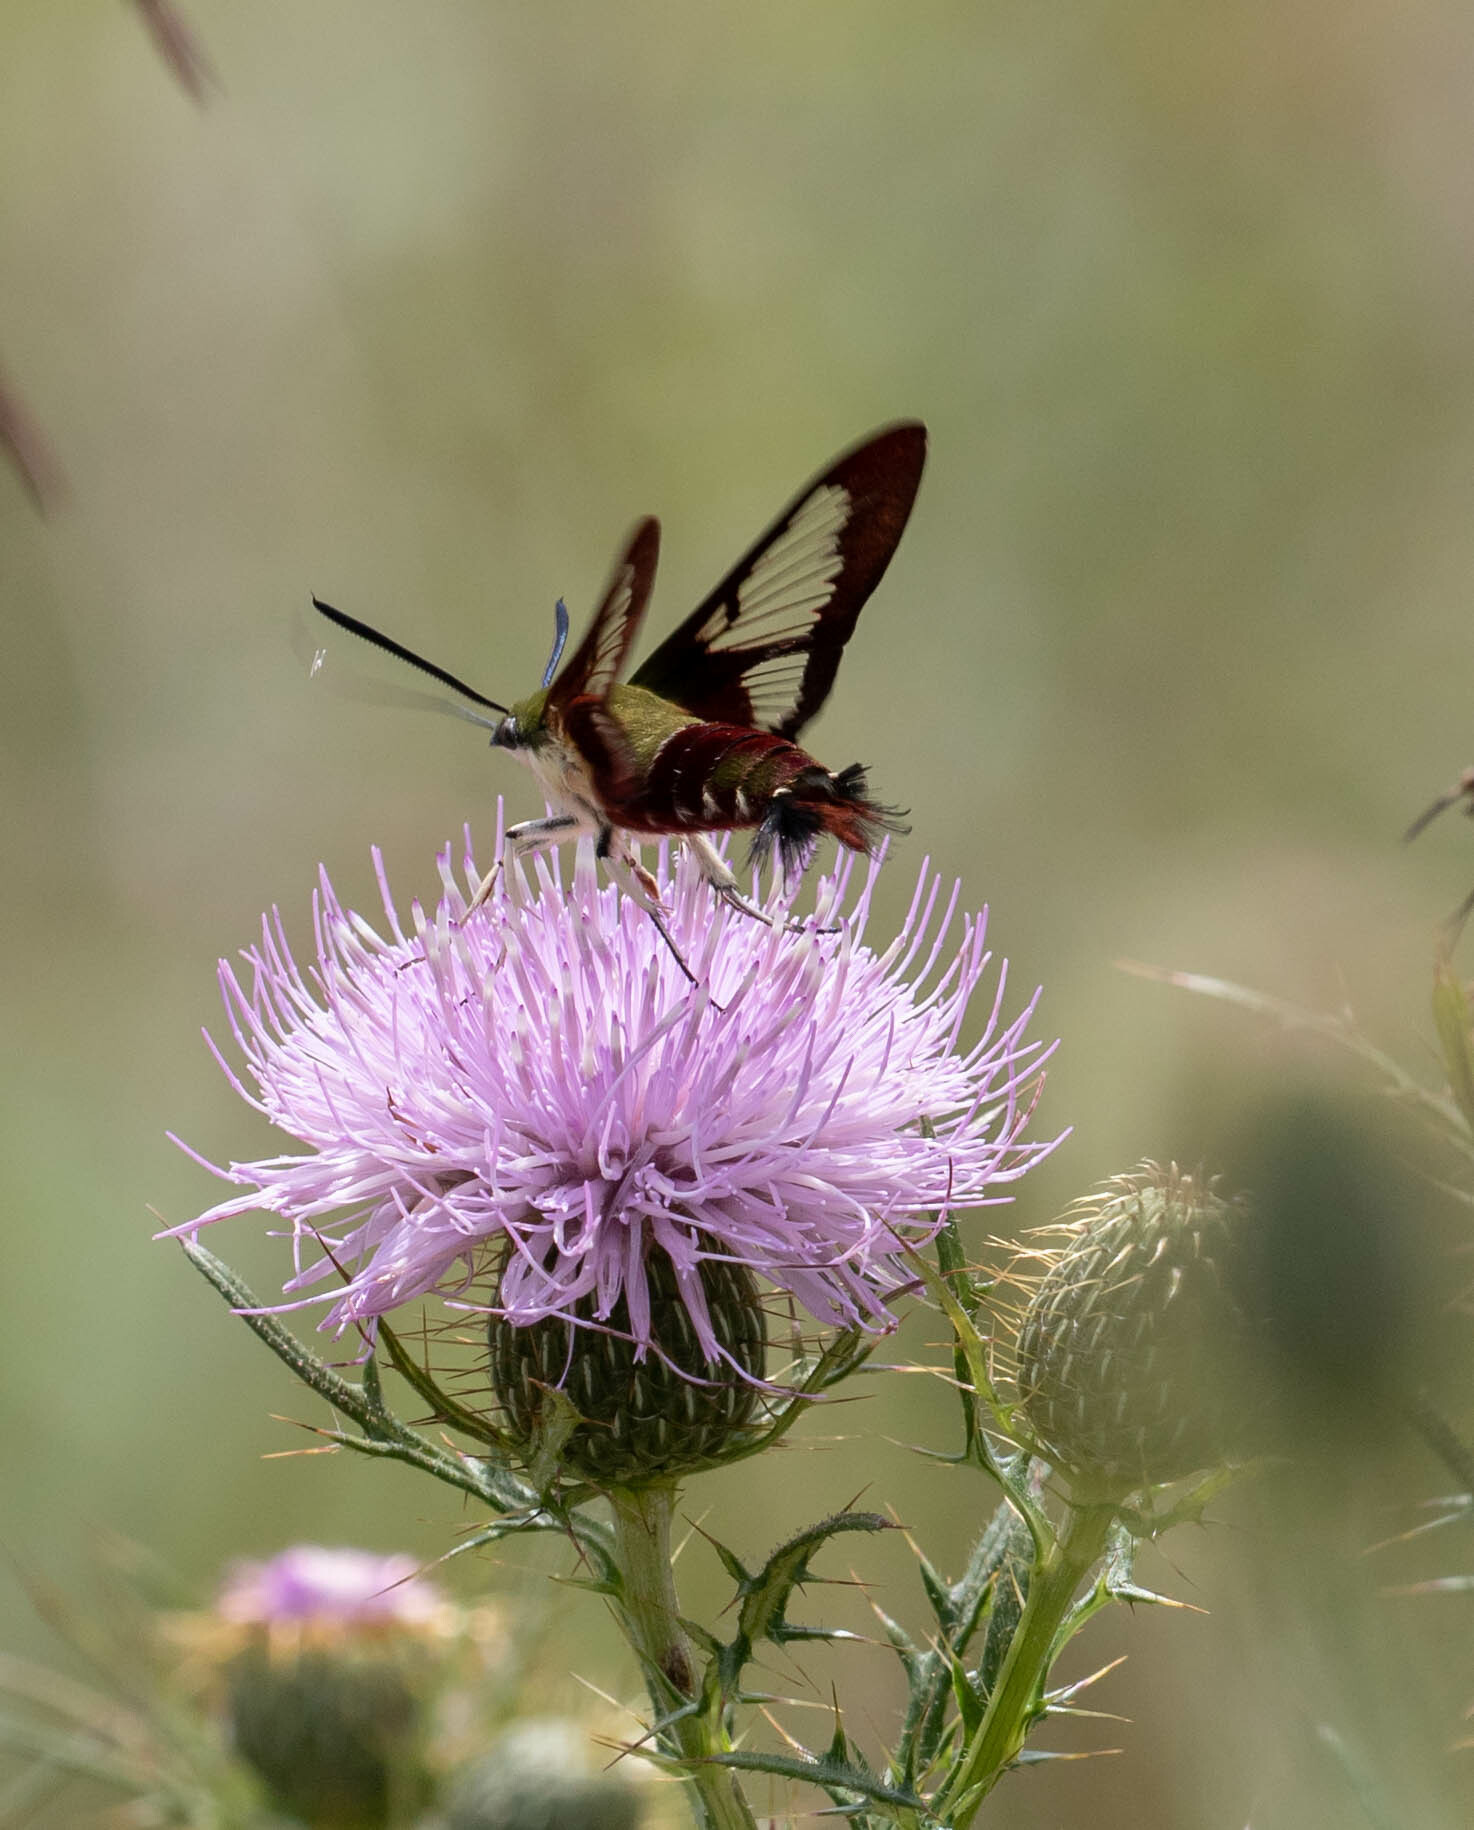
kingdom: Animalia
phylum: Arthropoda
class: Insecta
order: Lepidoptera
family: Sphingidae
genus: Hemaris
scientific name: Hemaris thysbe
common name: Common clear-wing
